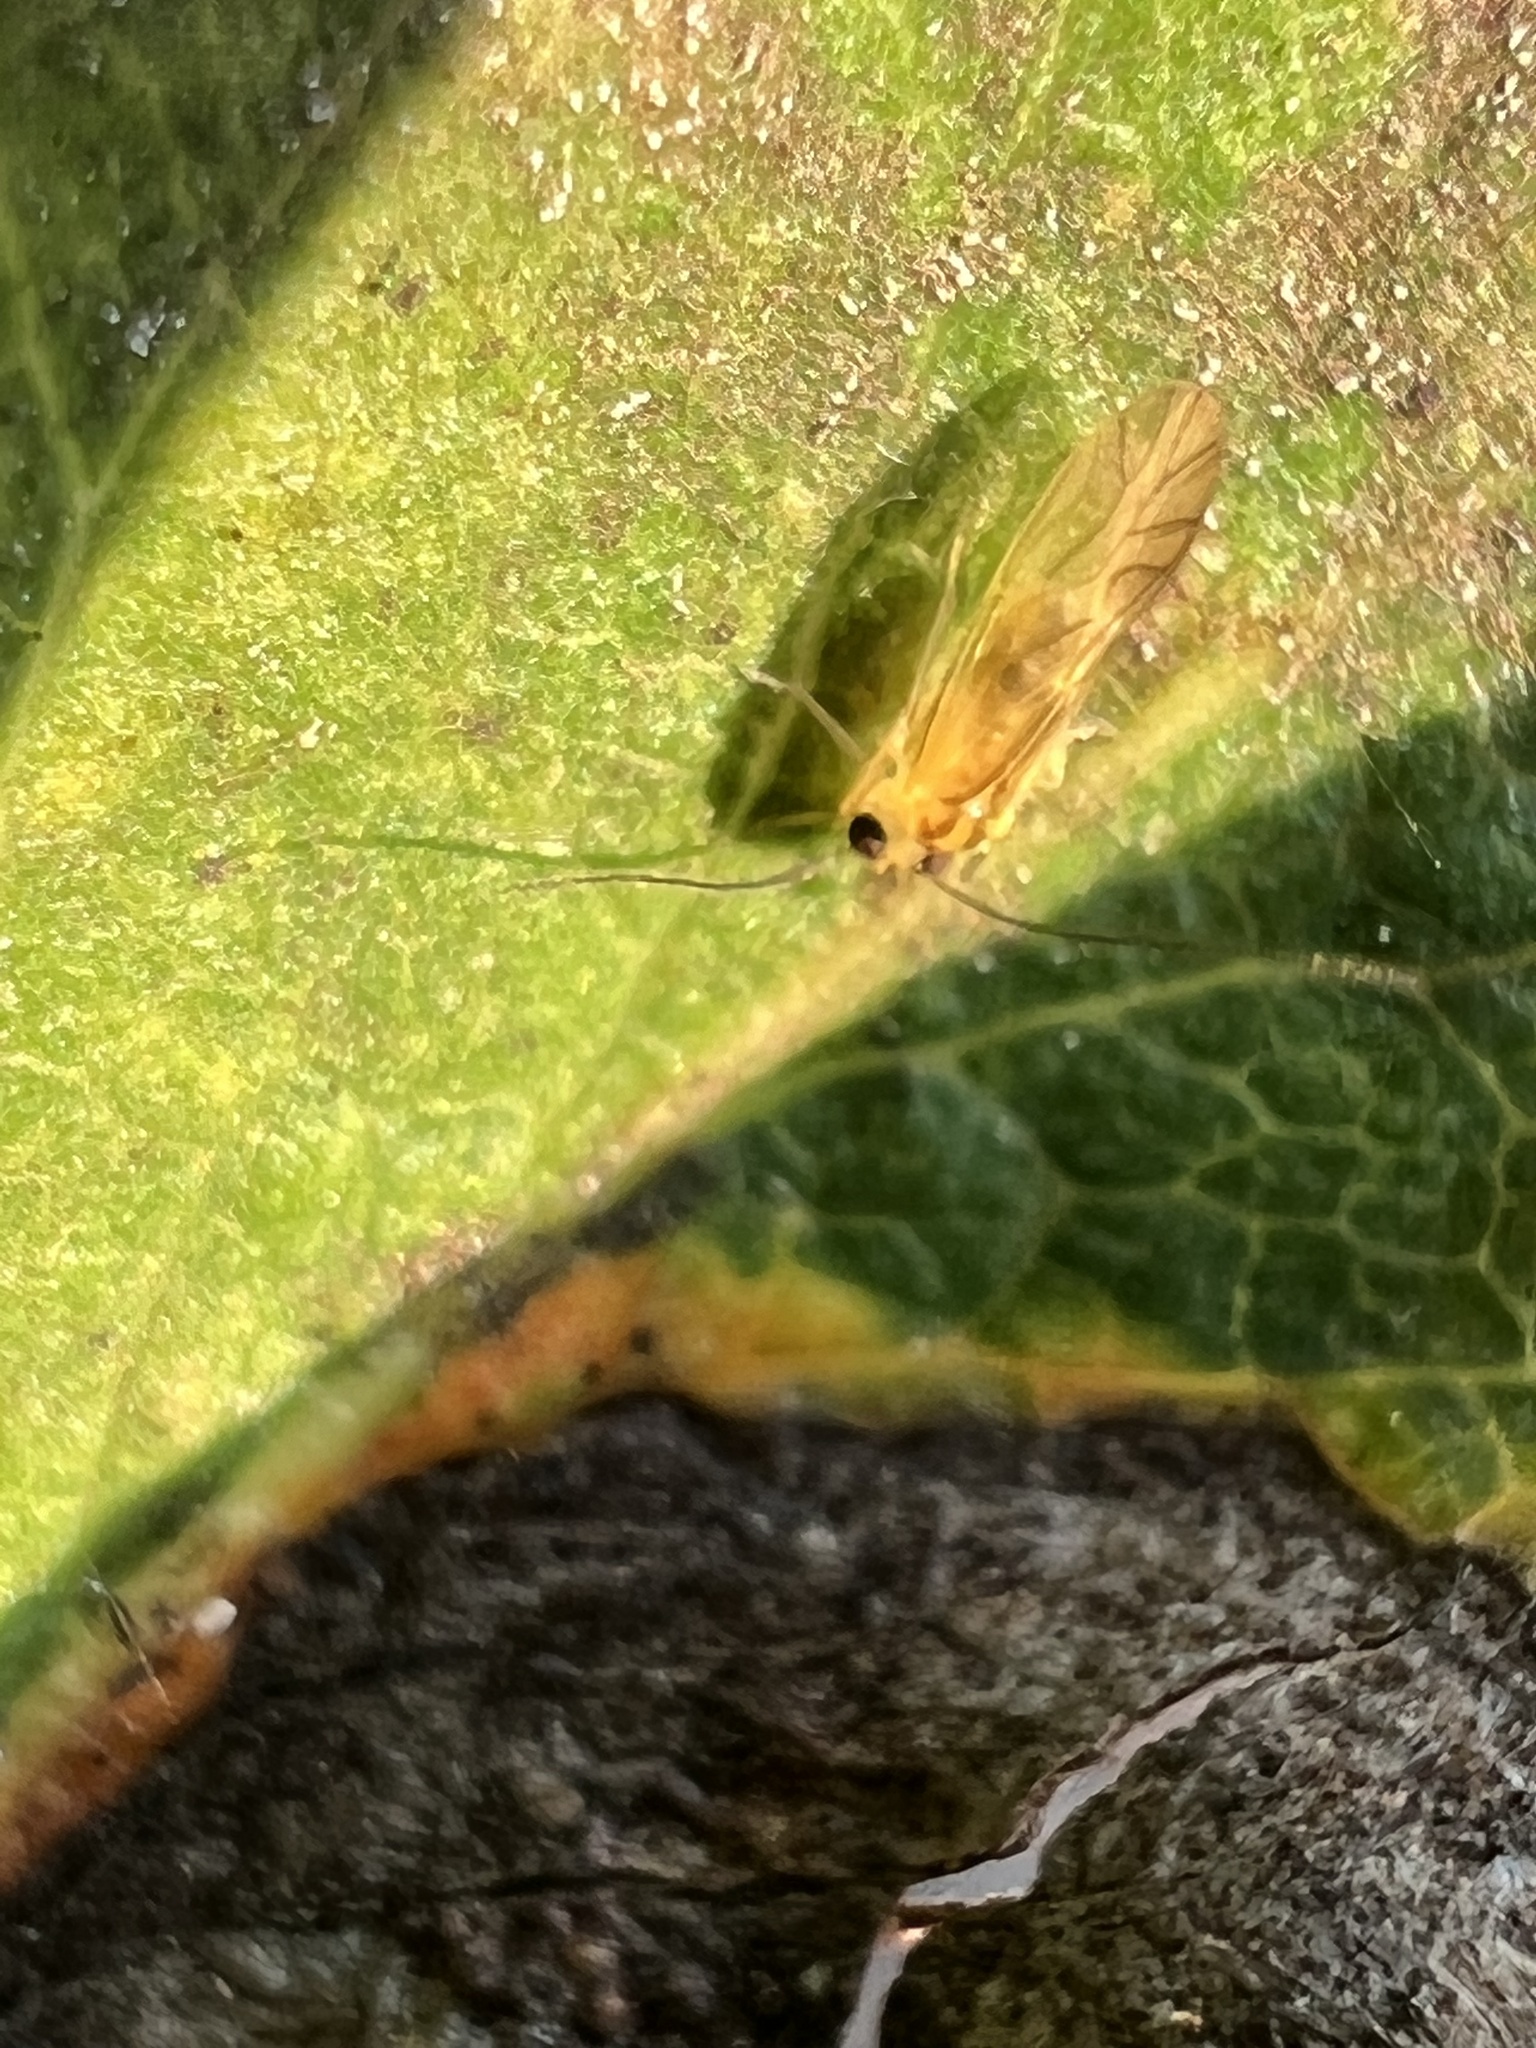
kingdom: Animalia
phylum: Arthropoda
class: Insecta
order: Psocodea
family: Caeciliusidae
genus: Valenzuela
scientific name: Valenzuela flavidus
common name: Yellow barklouse
